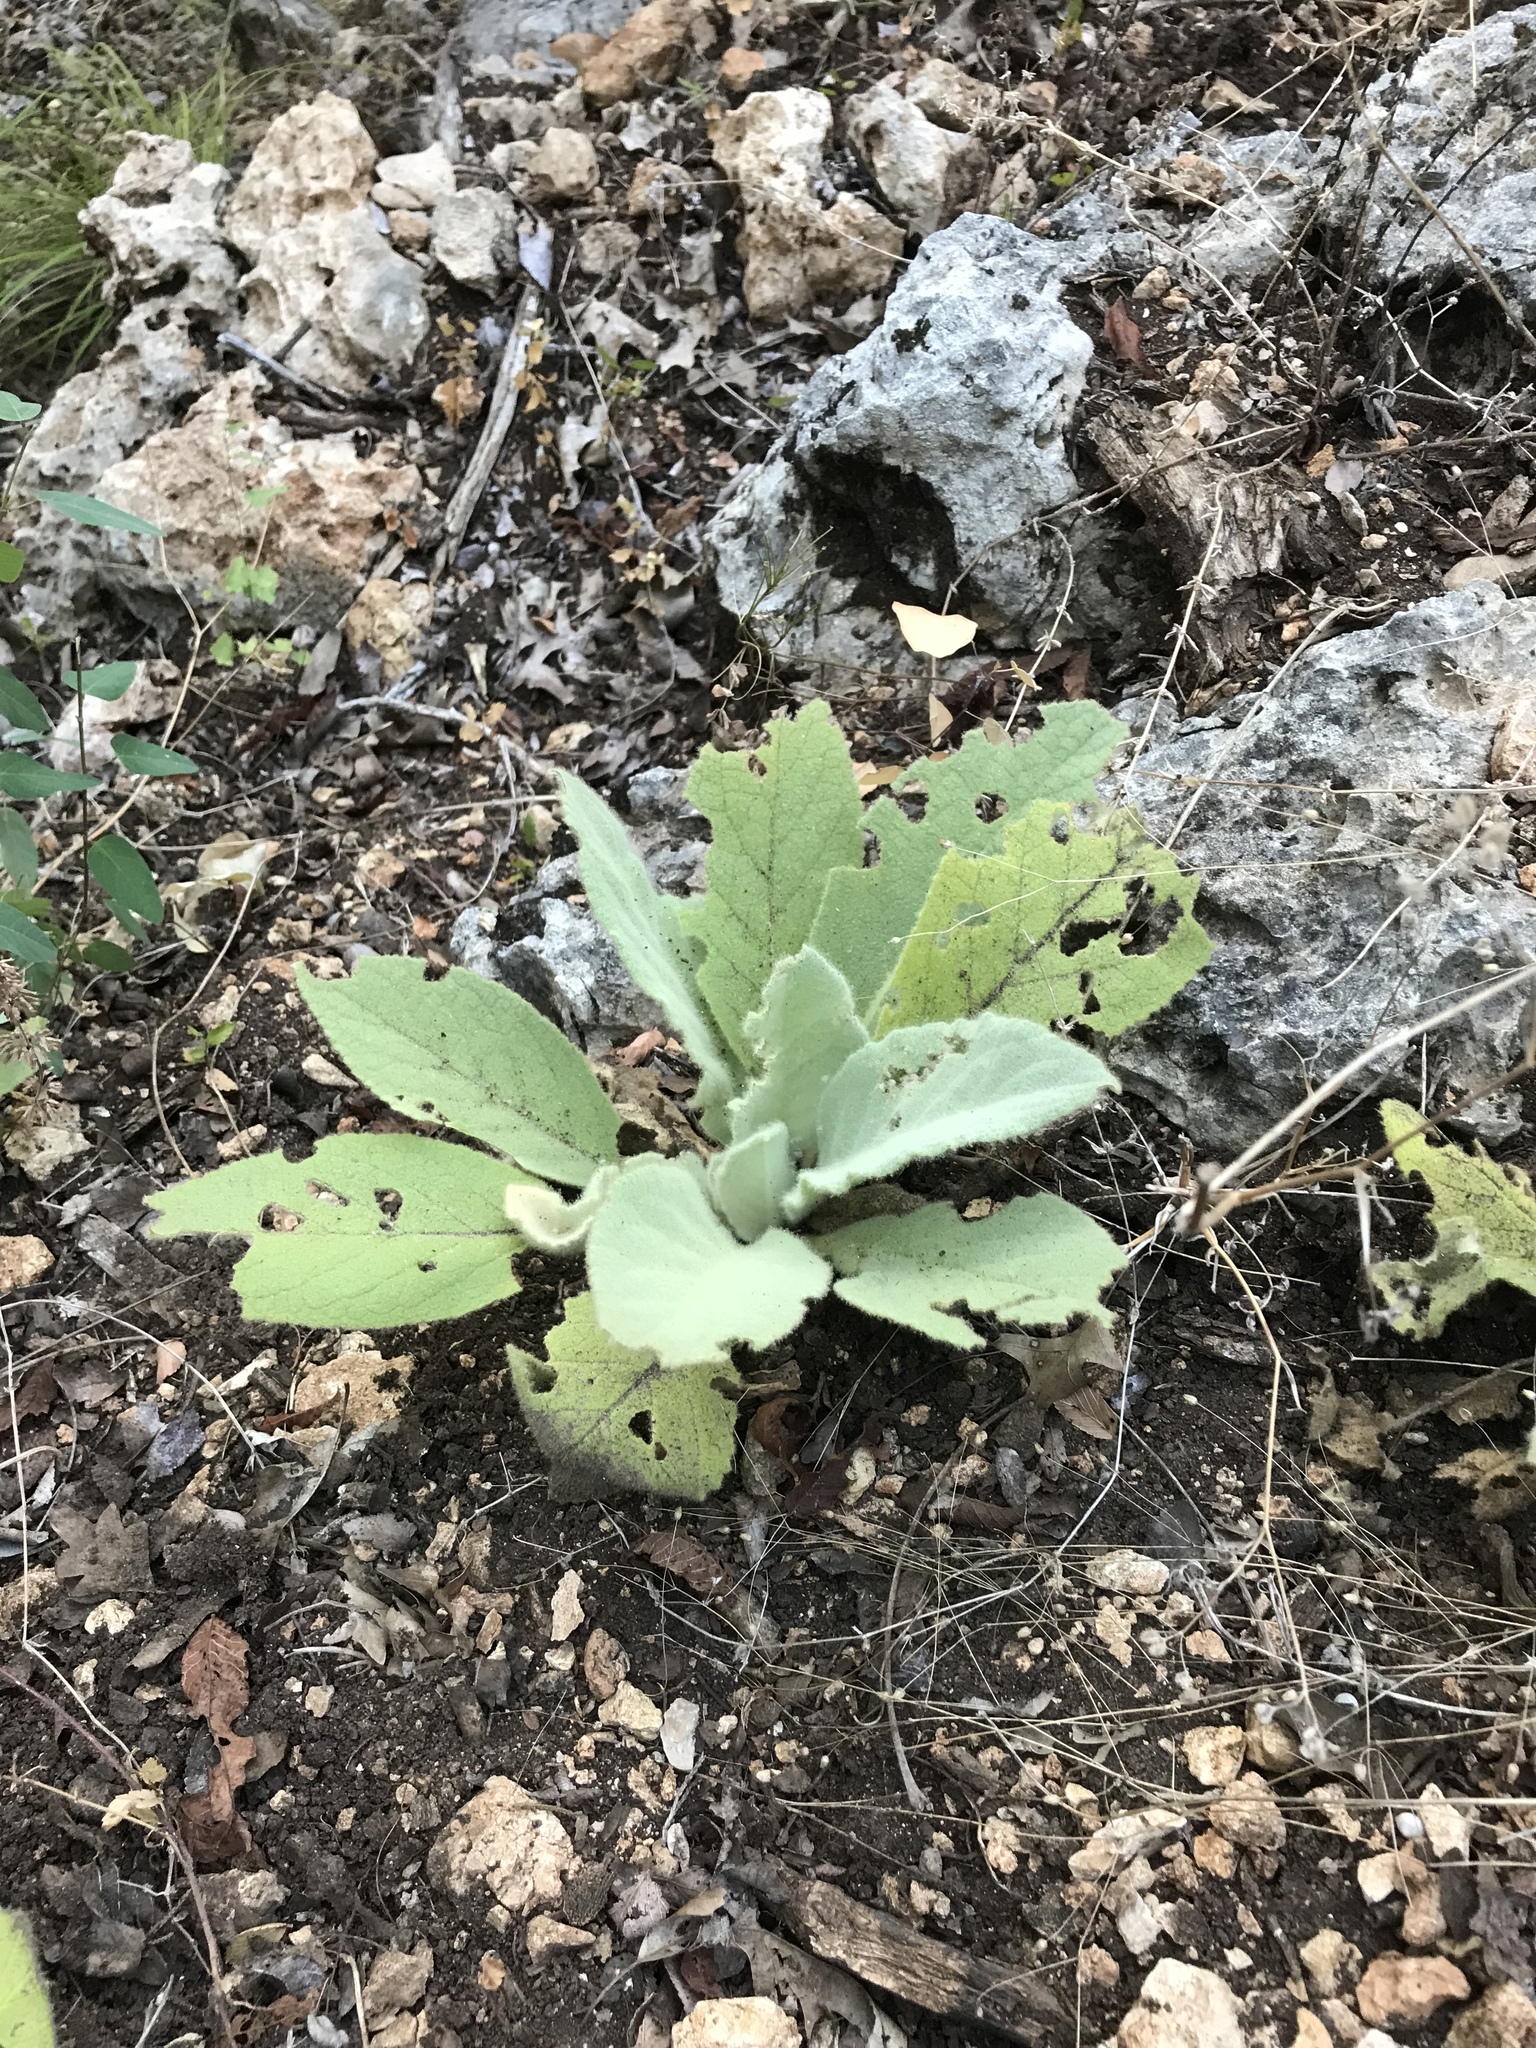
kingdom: Plantae
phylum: Tracheophyta
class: Magnoliopsida
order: Lamiales
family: Scrophulariaceae
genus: Verbascum
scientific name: Verbascum thapsus
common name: Common mullein
